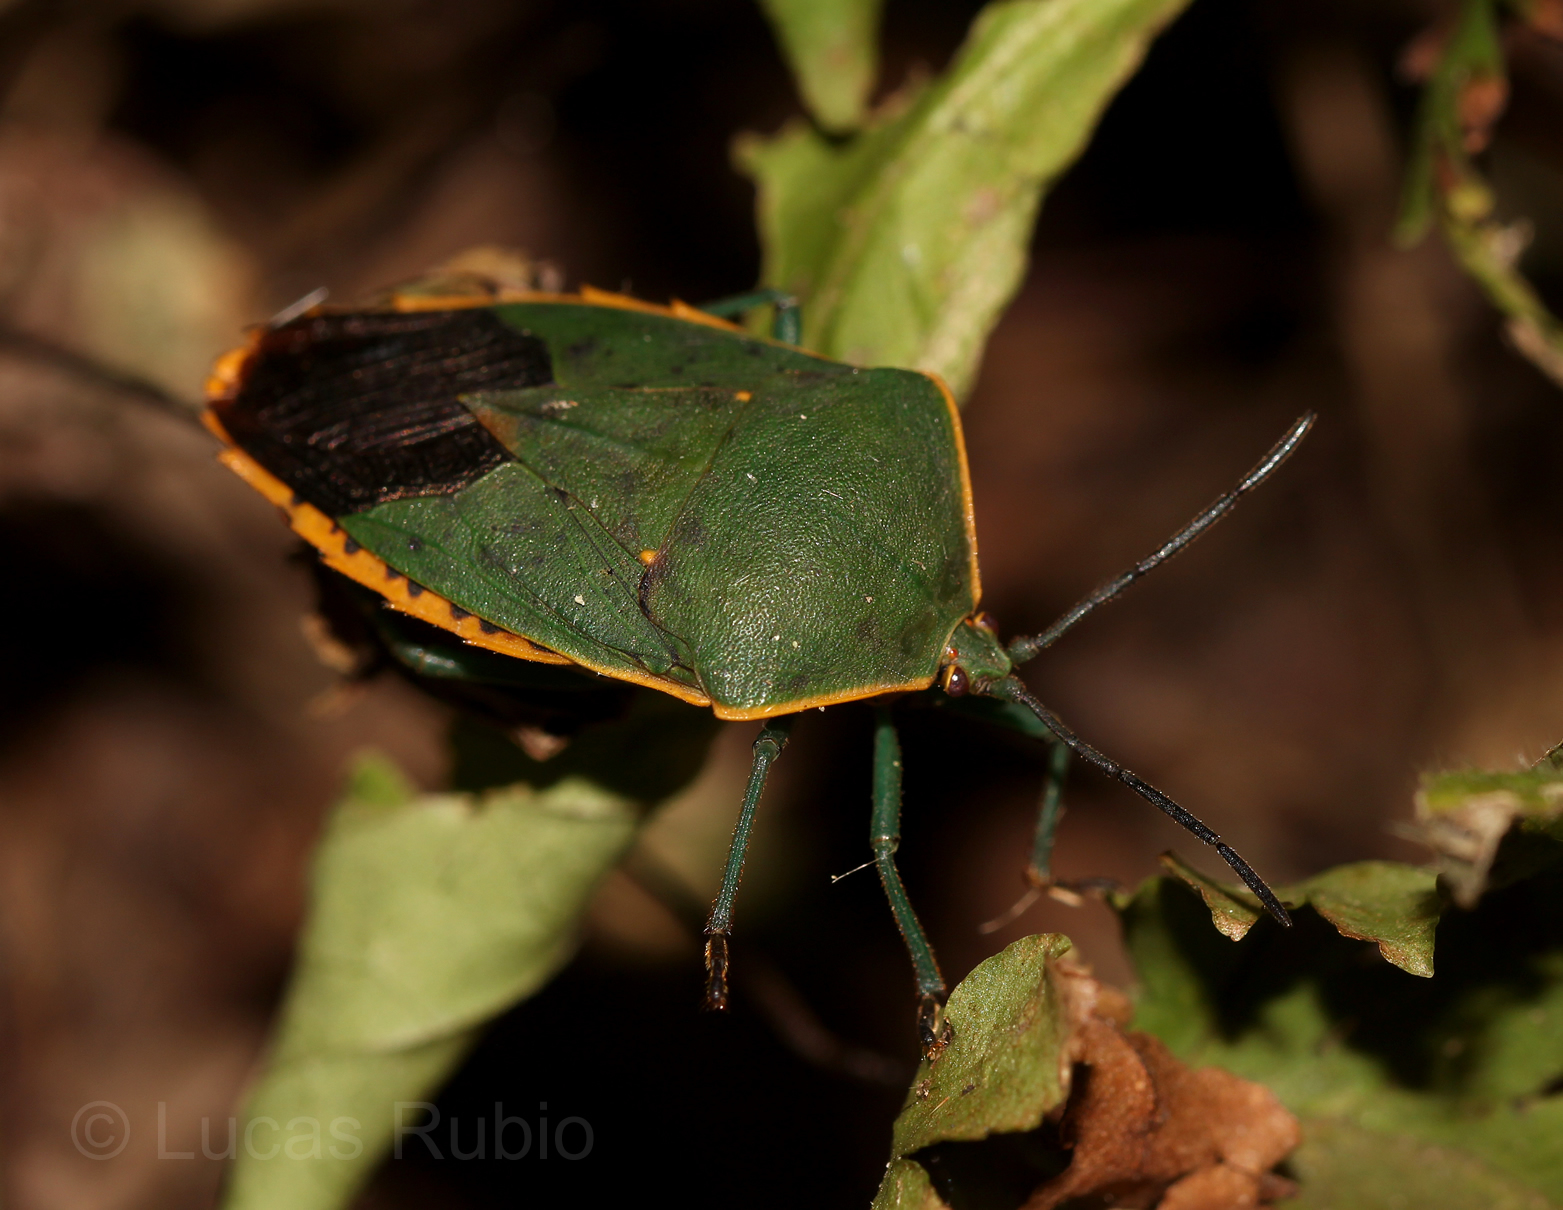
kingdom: Animalia
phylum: Arthropoda
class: Insecta
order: Hemiptera
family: Tessaratomidae
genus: Piezosternum
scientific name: Piezosternum thunbergi
